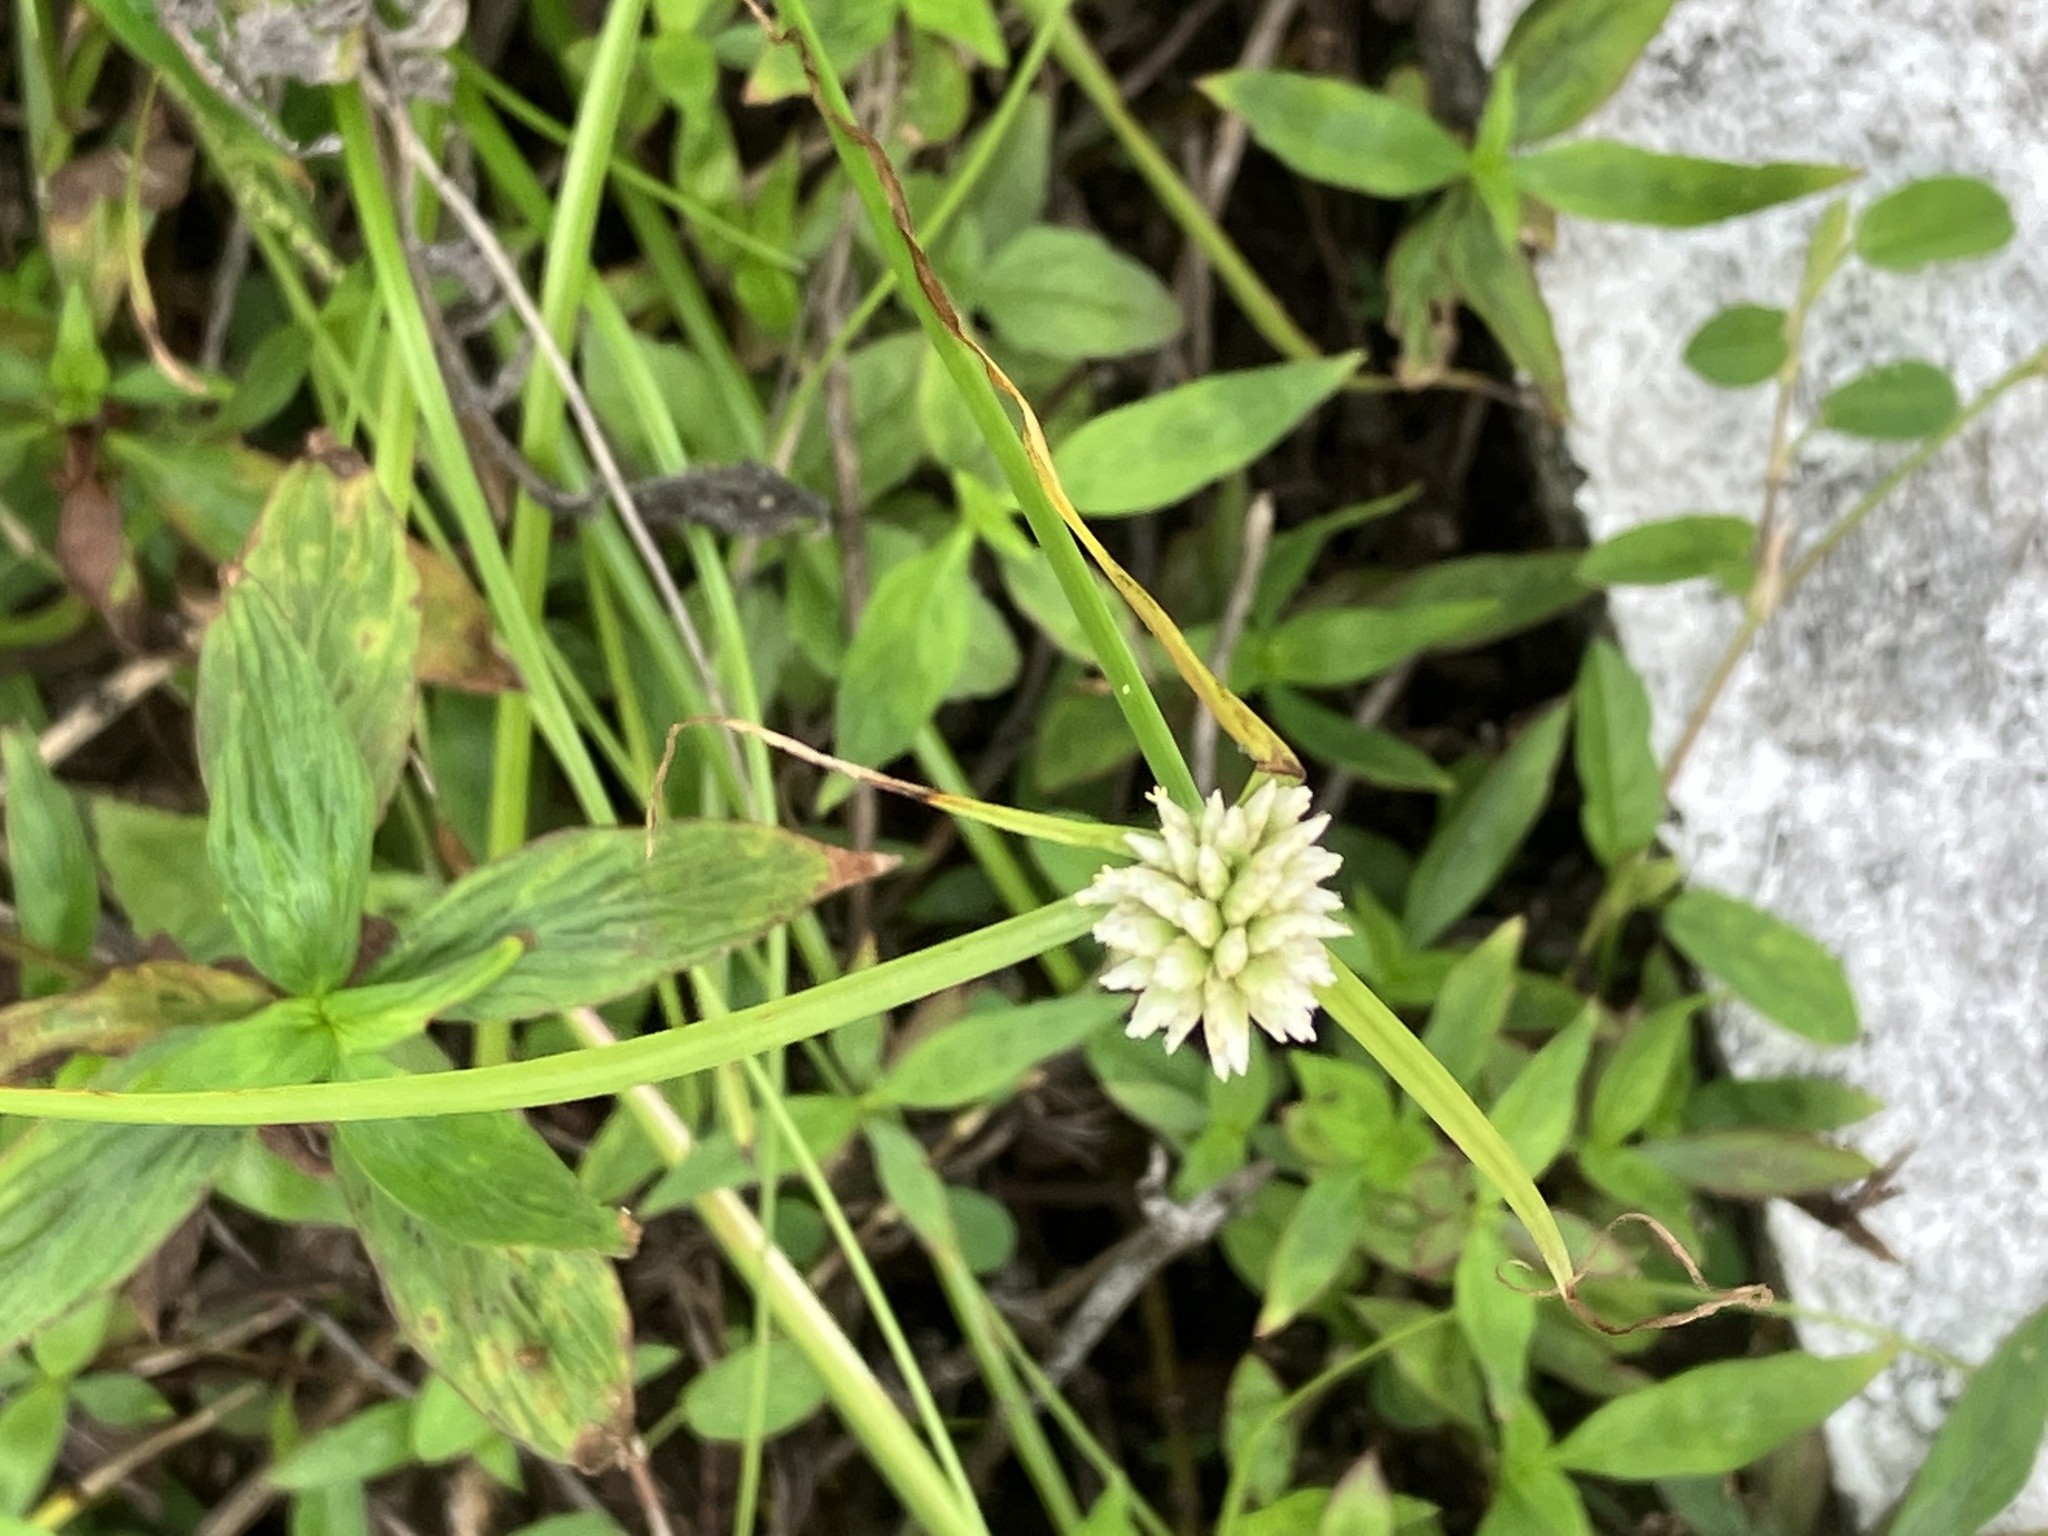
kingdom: Plantae
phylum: Tracheophyta
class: Liliopsida
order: Poales
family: Cyperaceae
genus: Cyperus
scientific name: Cyperus mindorensis
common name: Flatsedge
